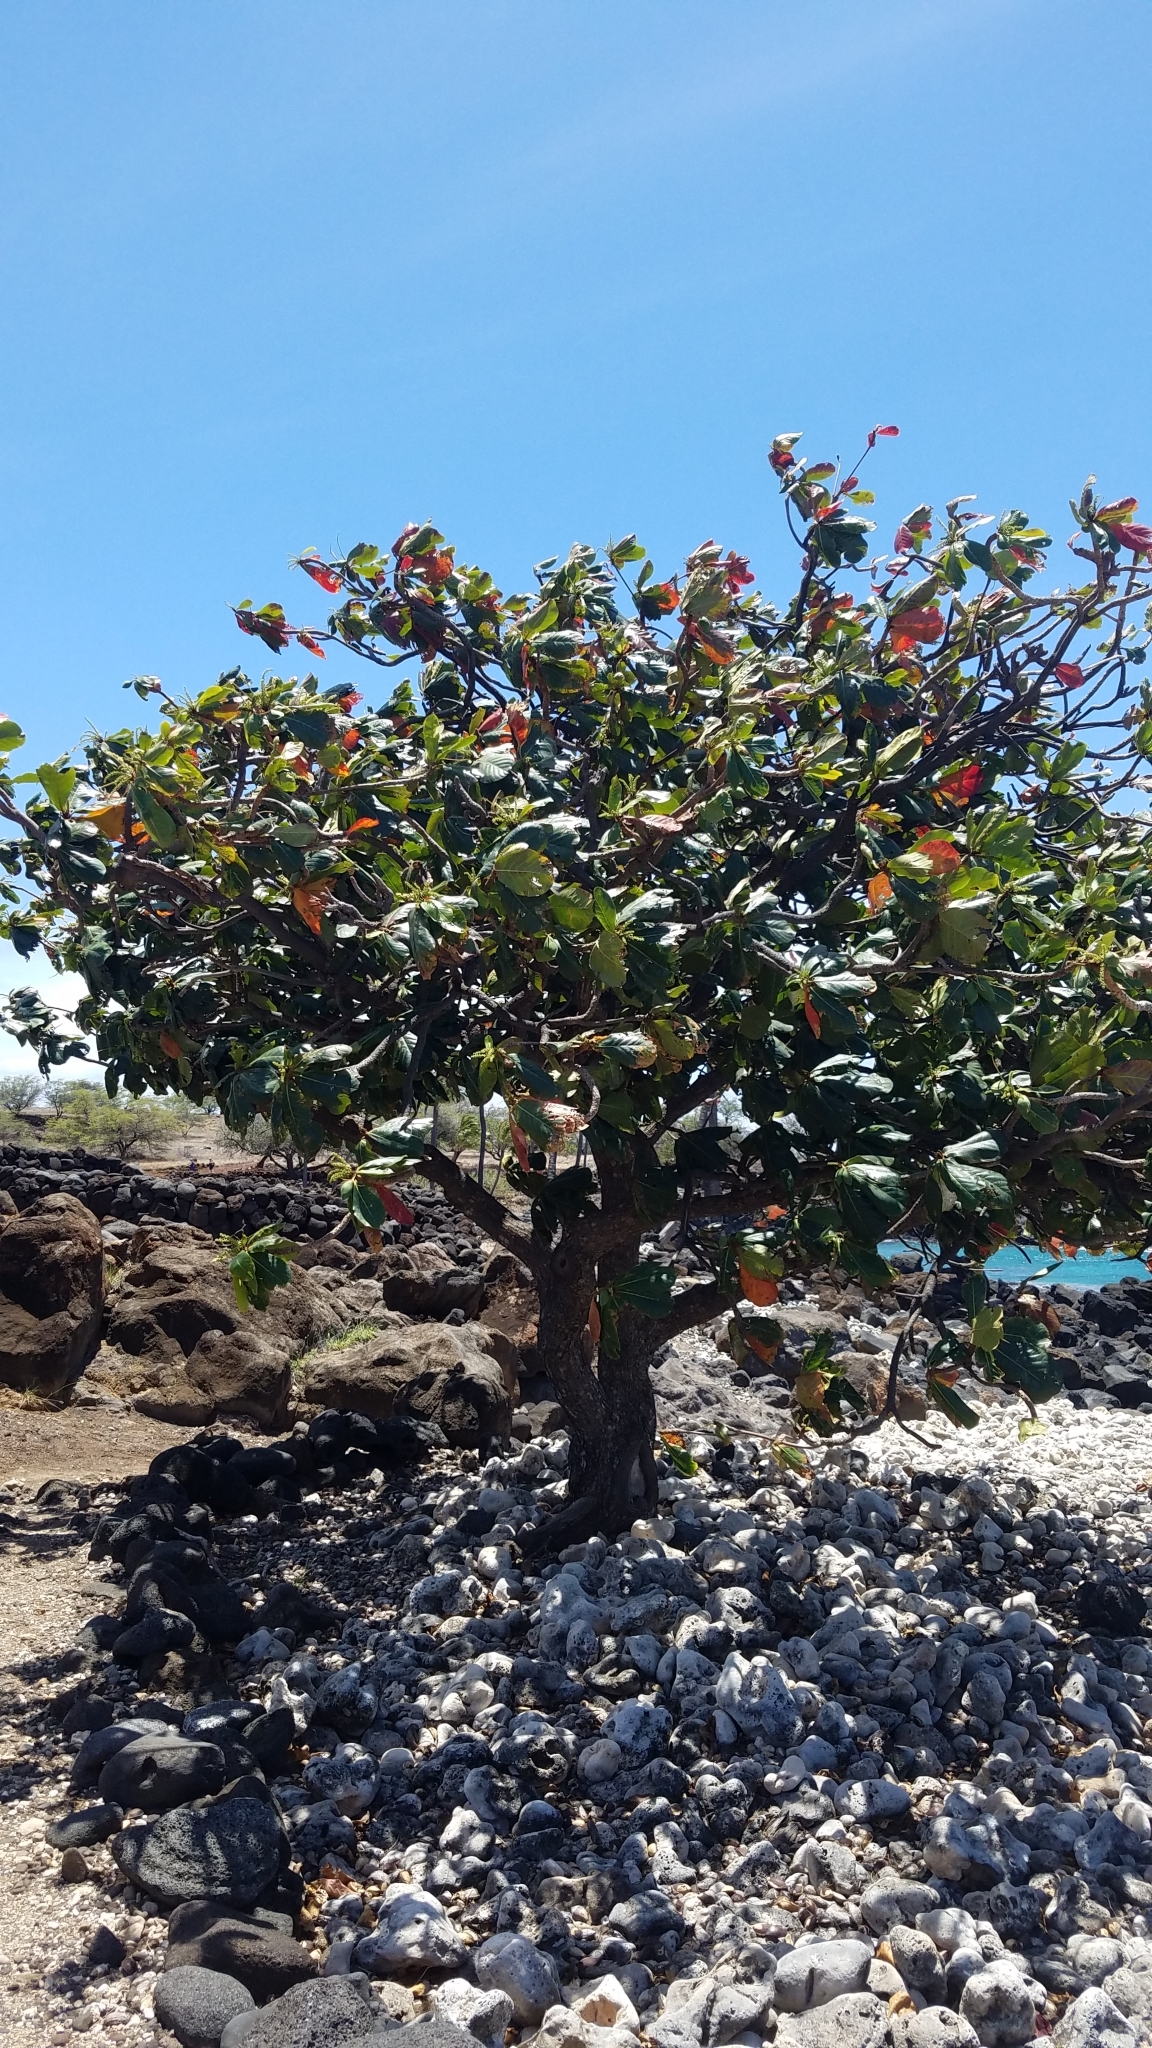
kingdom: Plantae
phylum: Tracheophyta
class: Magnoliopsida
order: Myrtales
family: Combretaceae
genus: Terminalia
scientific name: Terminalia catappa
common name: Tropical almond
